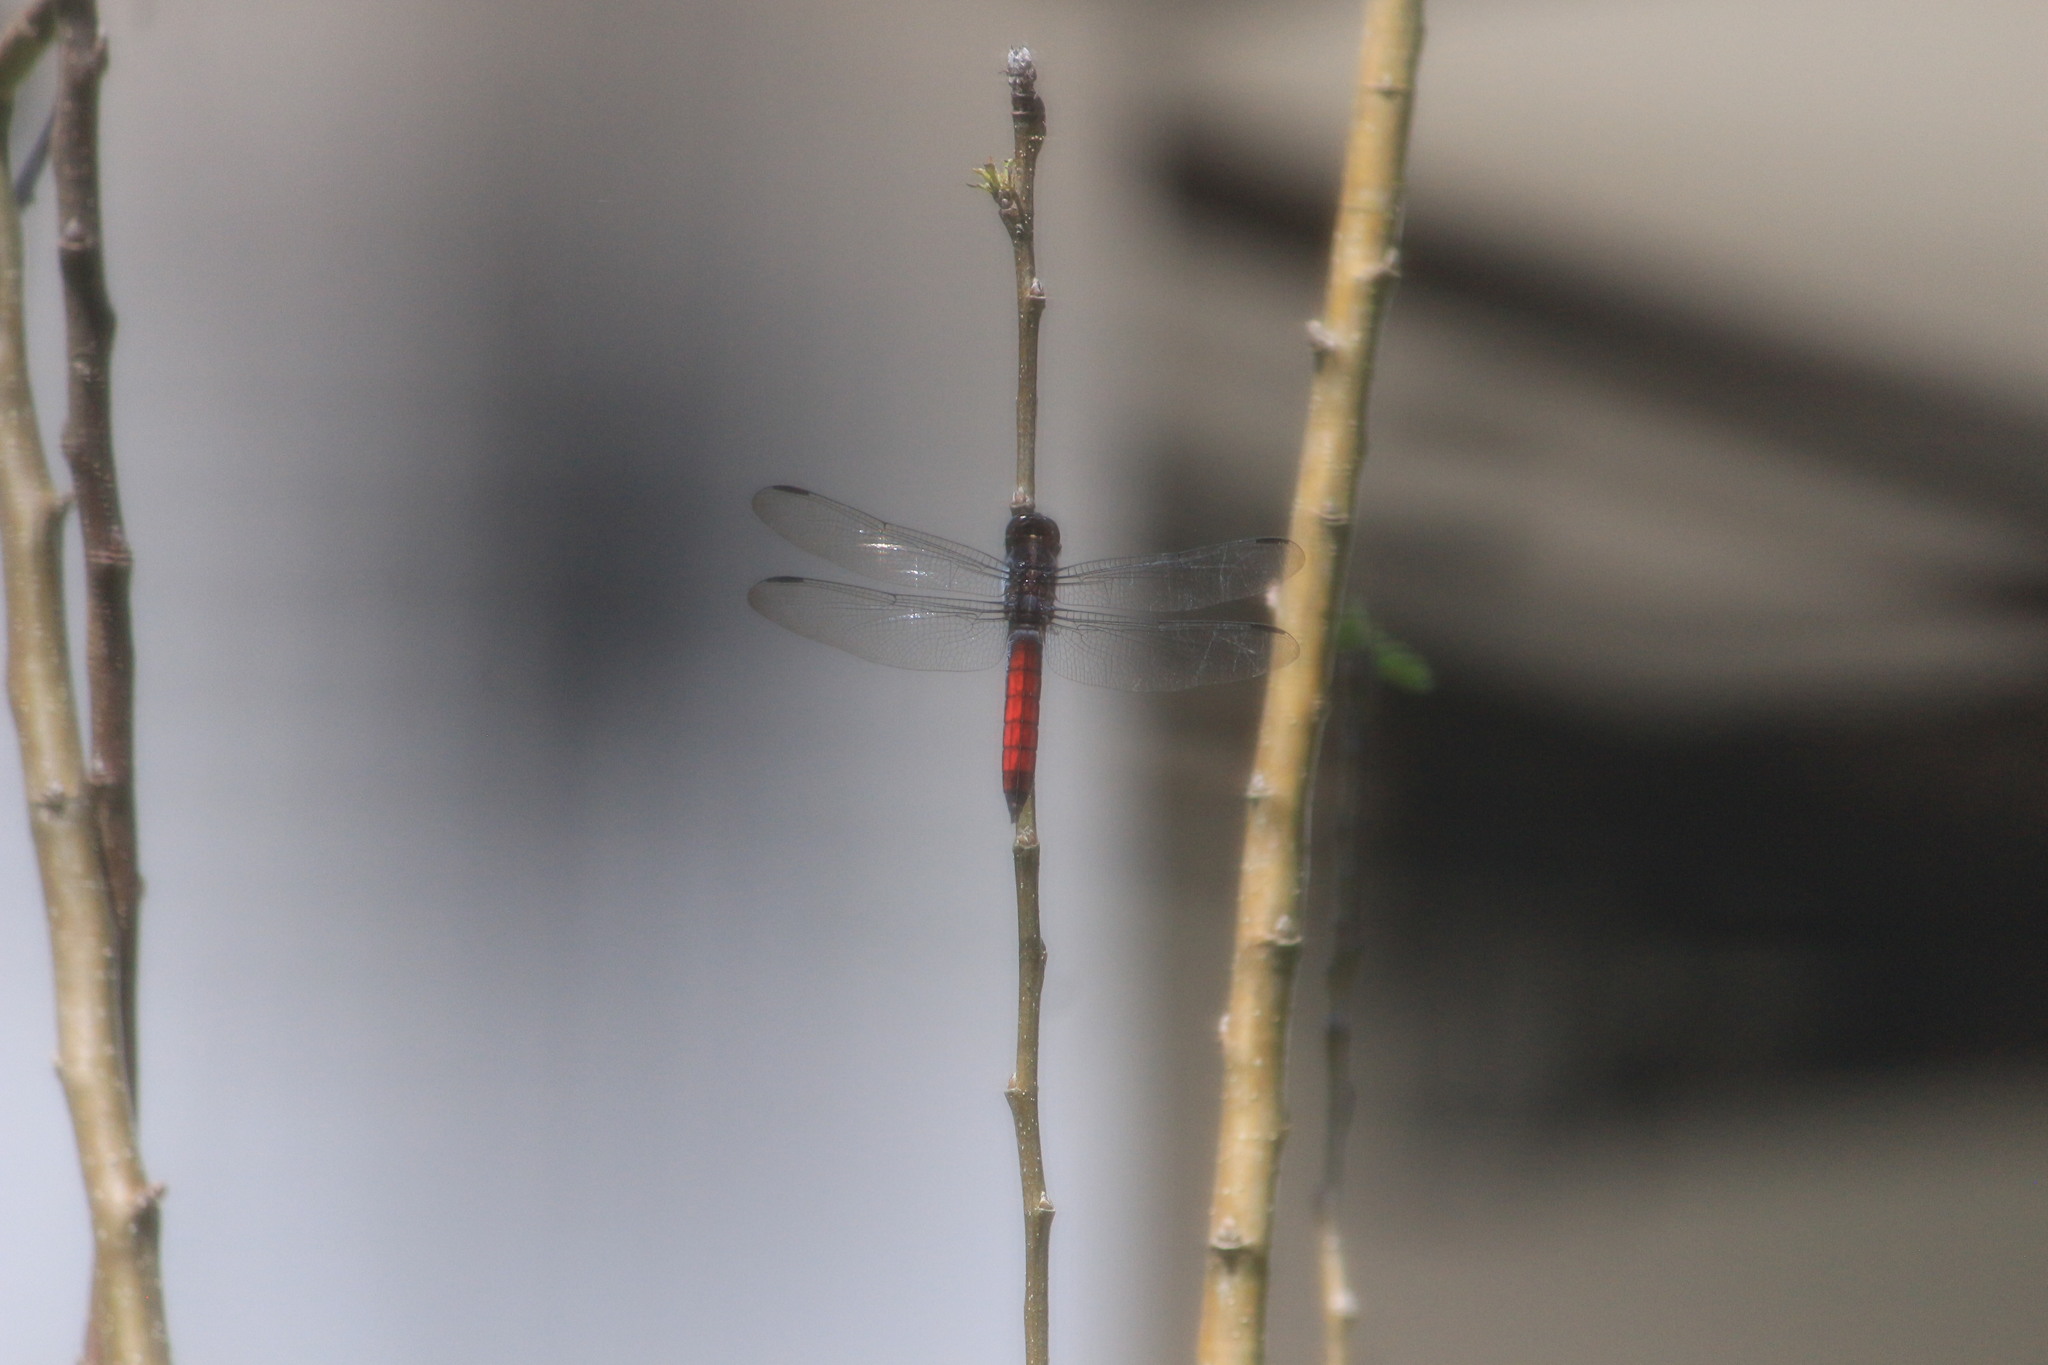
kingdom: Animalia
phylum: Arthropoda
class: Insecta
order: Odonata
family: Libellulidae
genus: Libellula
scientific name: Libellula herculea
